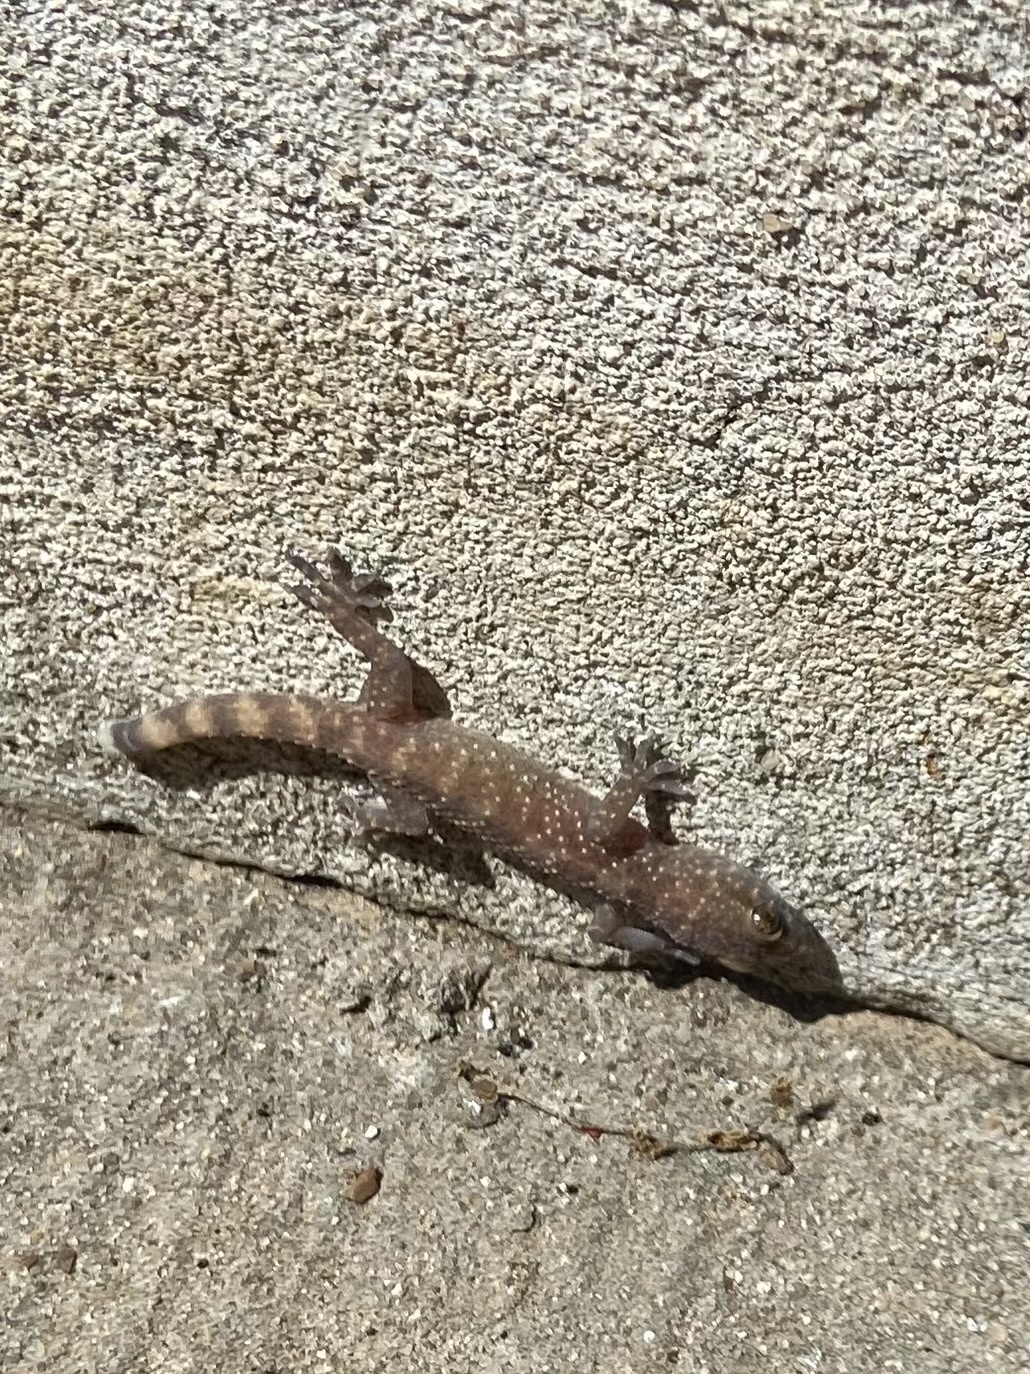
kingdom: Animalia
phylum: Chordata
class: Squamata
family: Gekkonidae
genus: Hemidactylus
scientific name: Hemidactylus turcicus
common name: Turkish gecko
